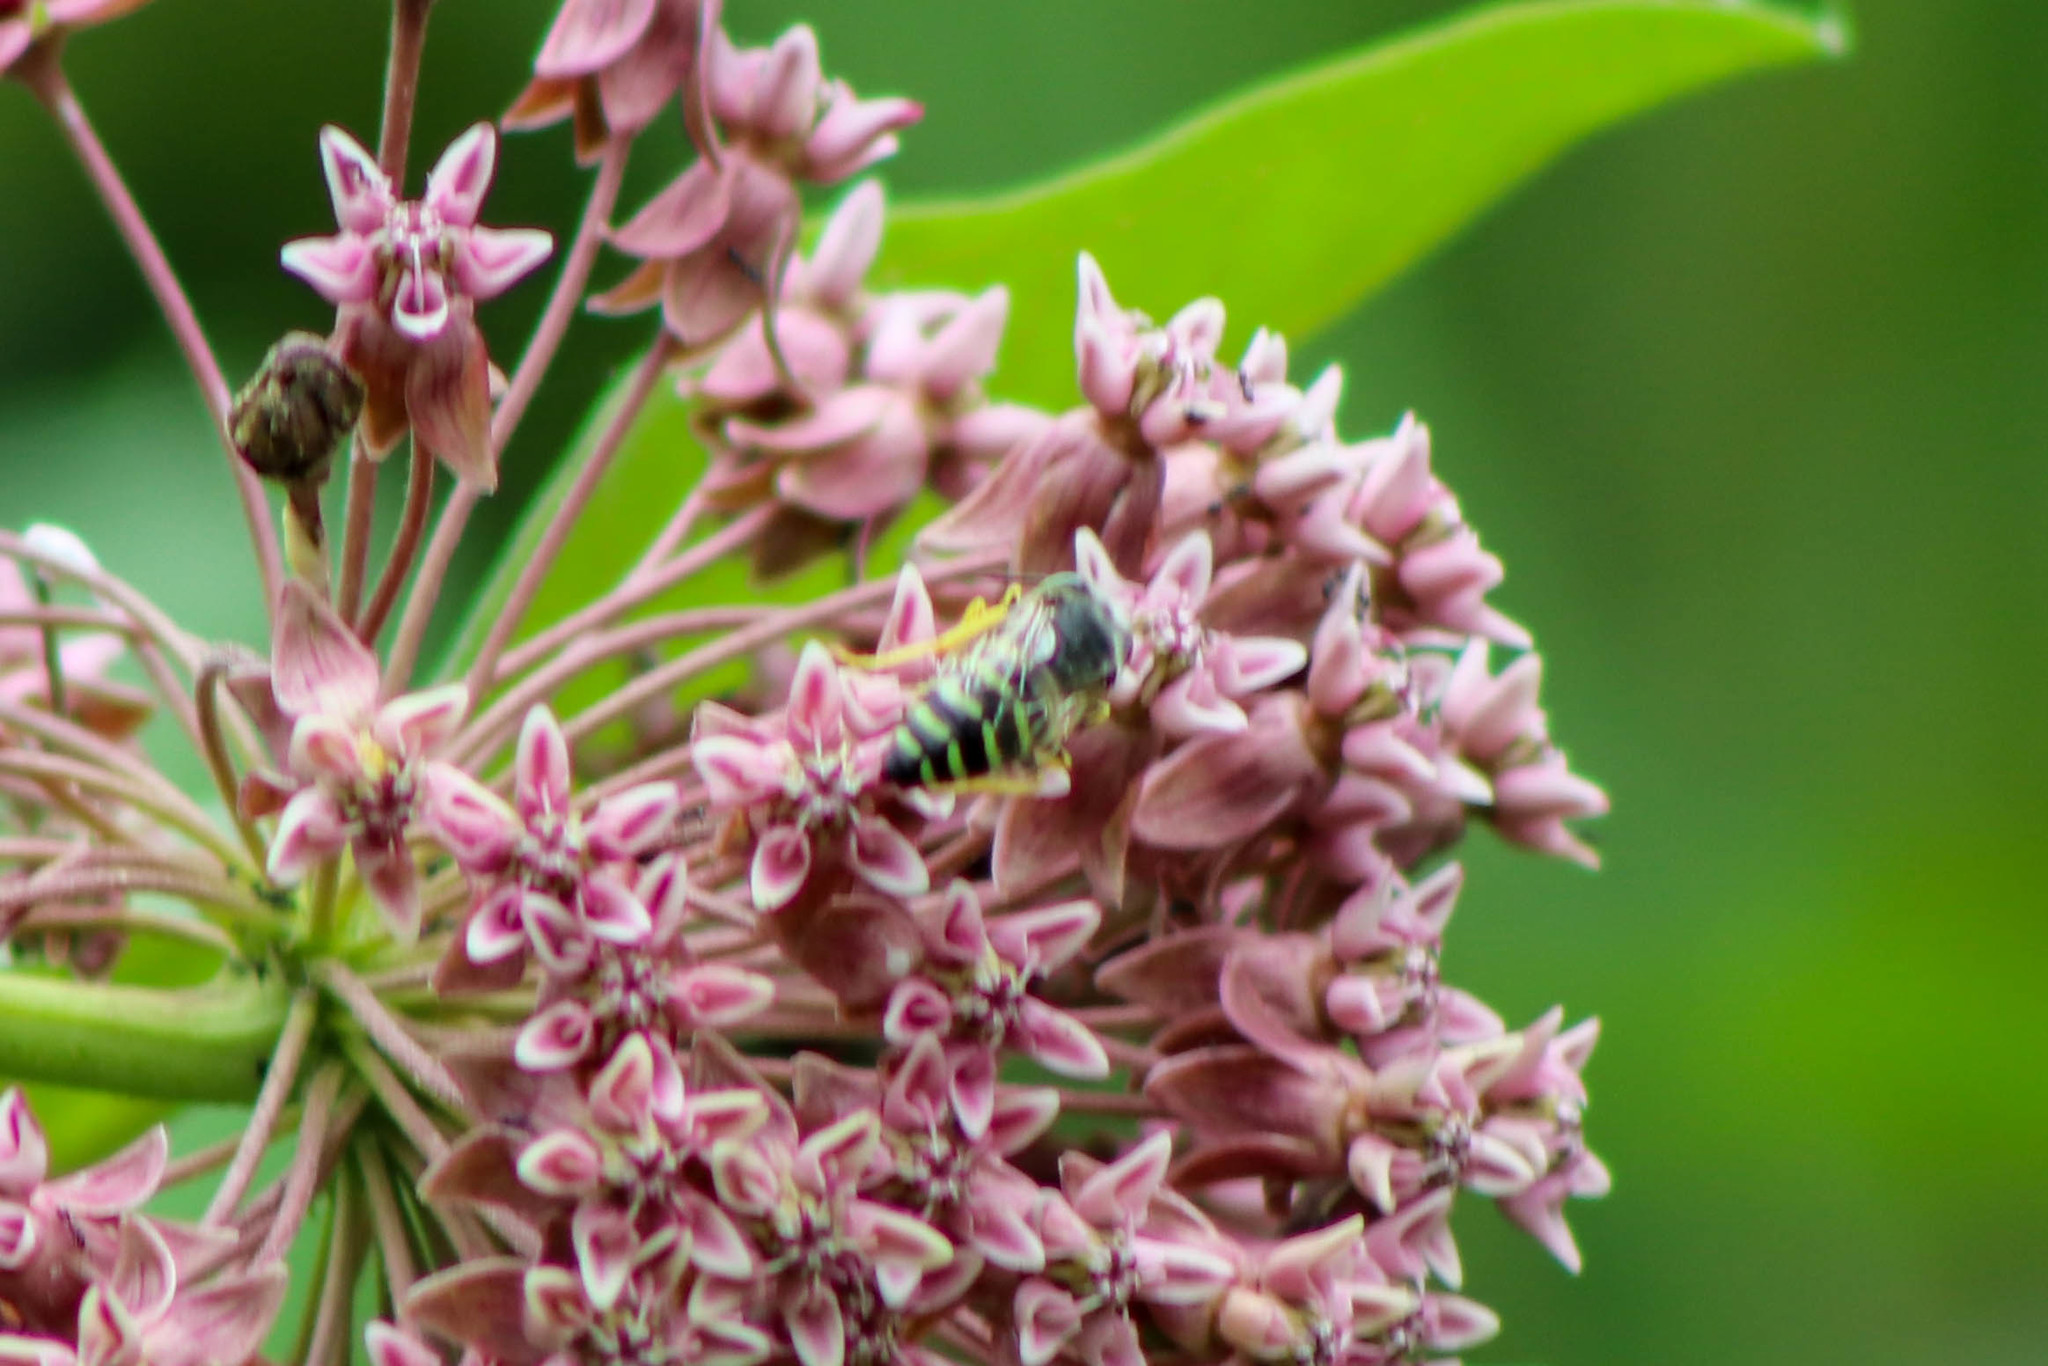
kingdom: Animalia
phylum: Arthropoda
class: Insecta
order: Hymenoptera
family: Crabronidae
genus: Bembix
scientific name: Bembix americana
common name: American sand wasp
